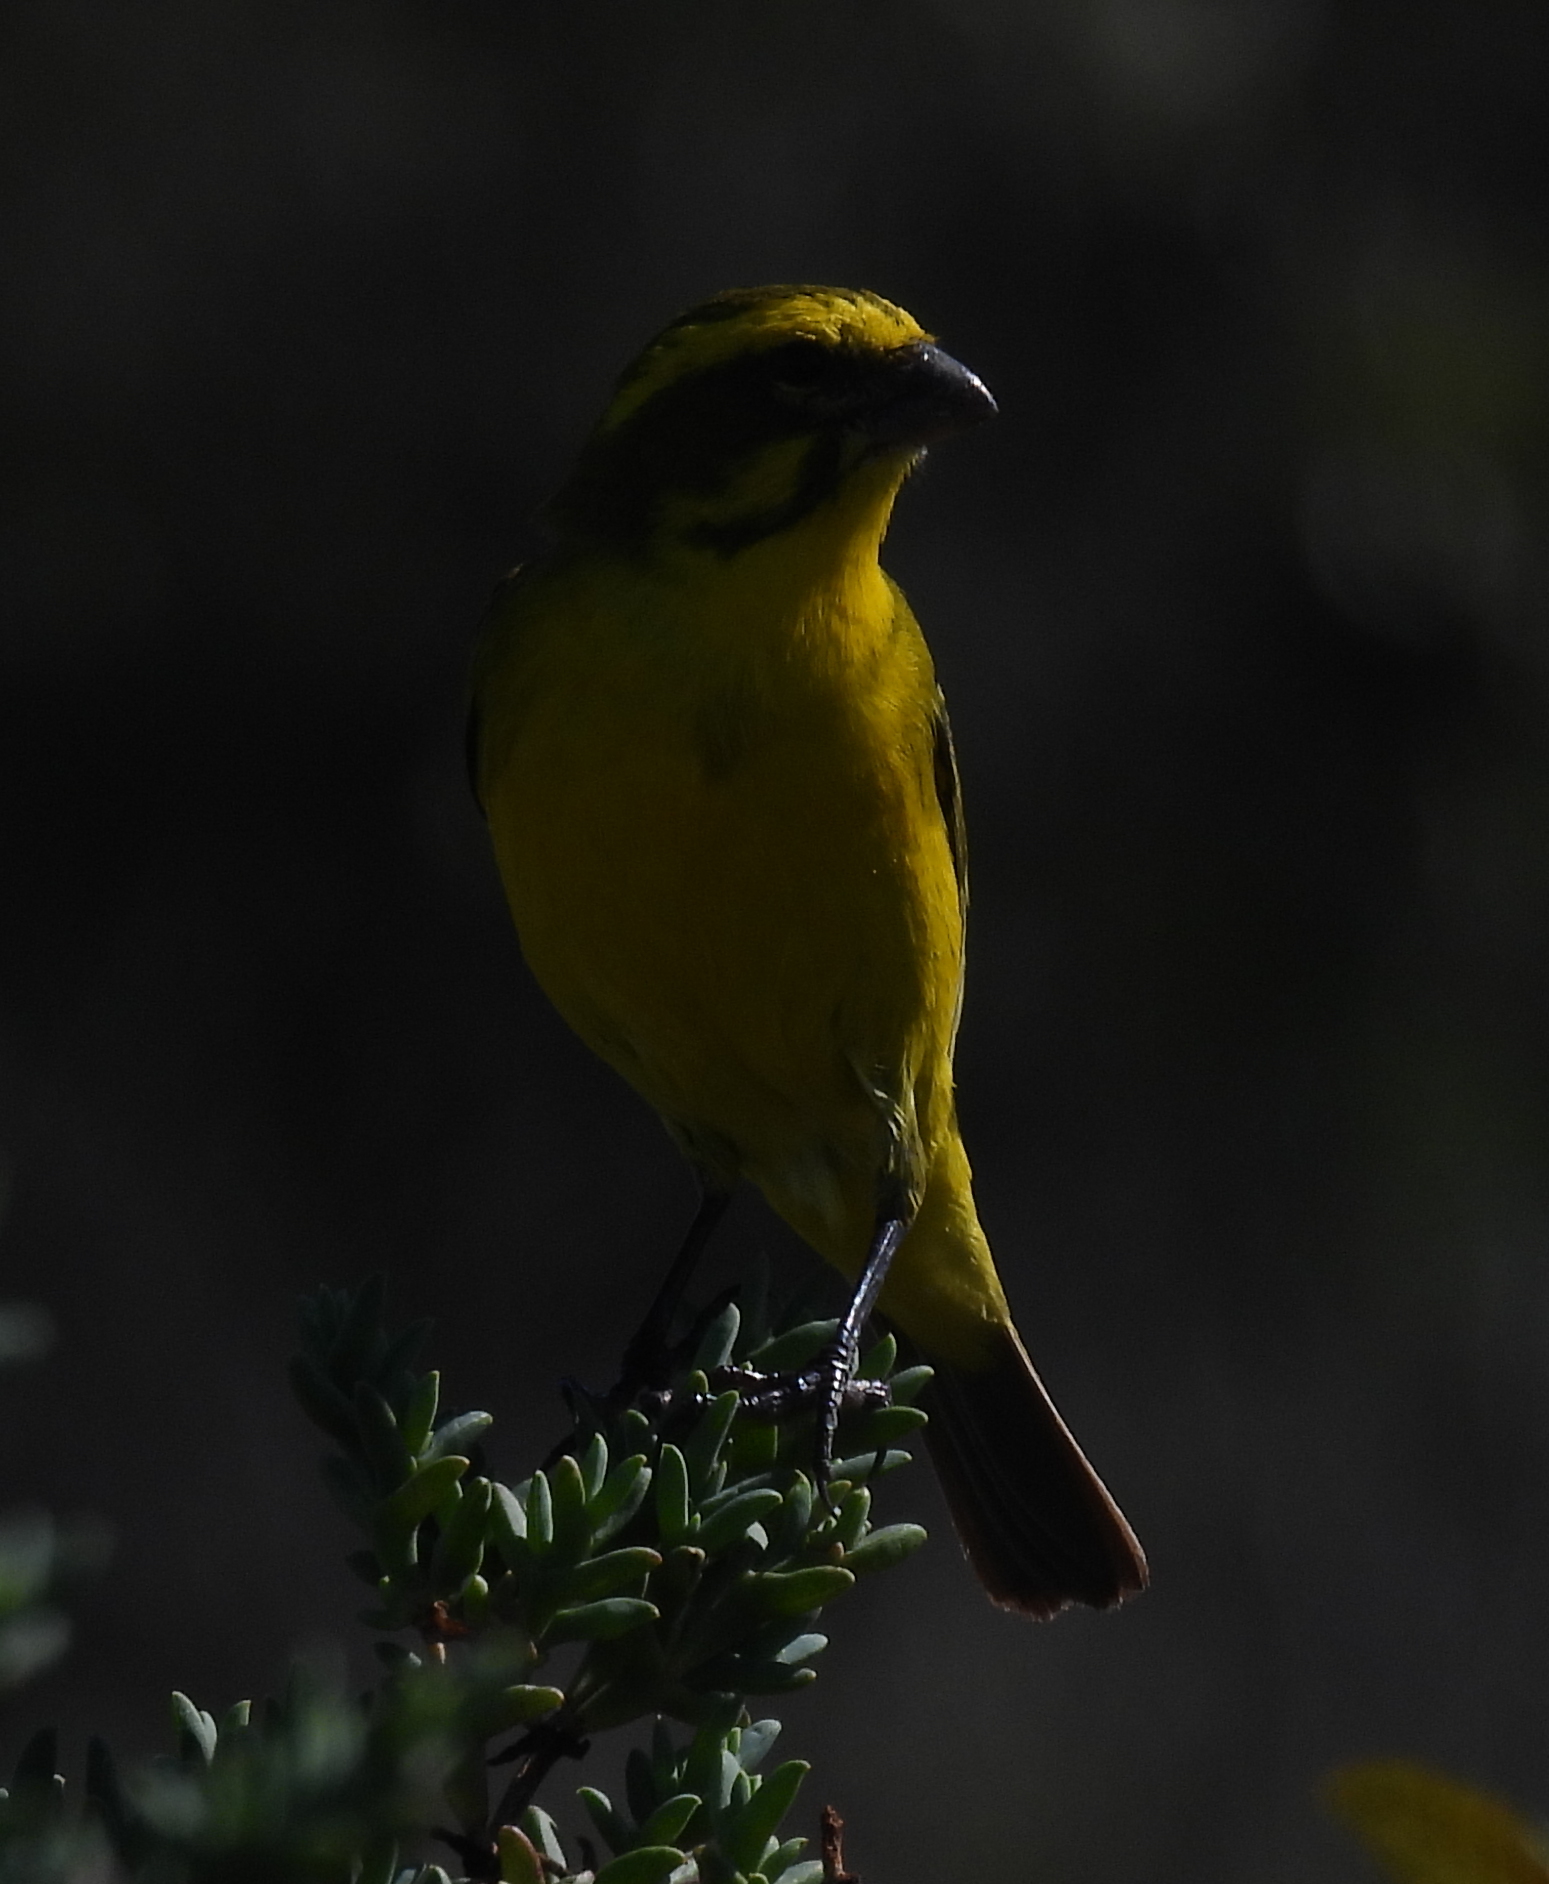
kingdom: Animalia
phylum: Chordata
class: Aves
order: Passeriformes
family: Fringillidae
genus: Crithagra
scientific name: Crithagra flaviventris
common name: Yellow canary
